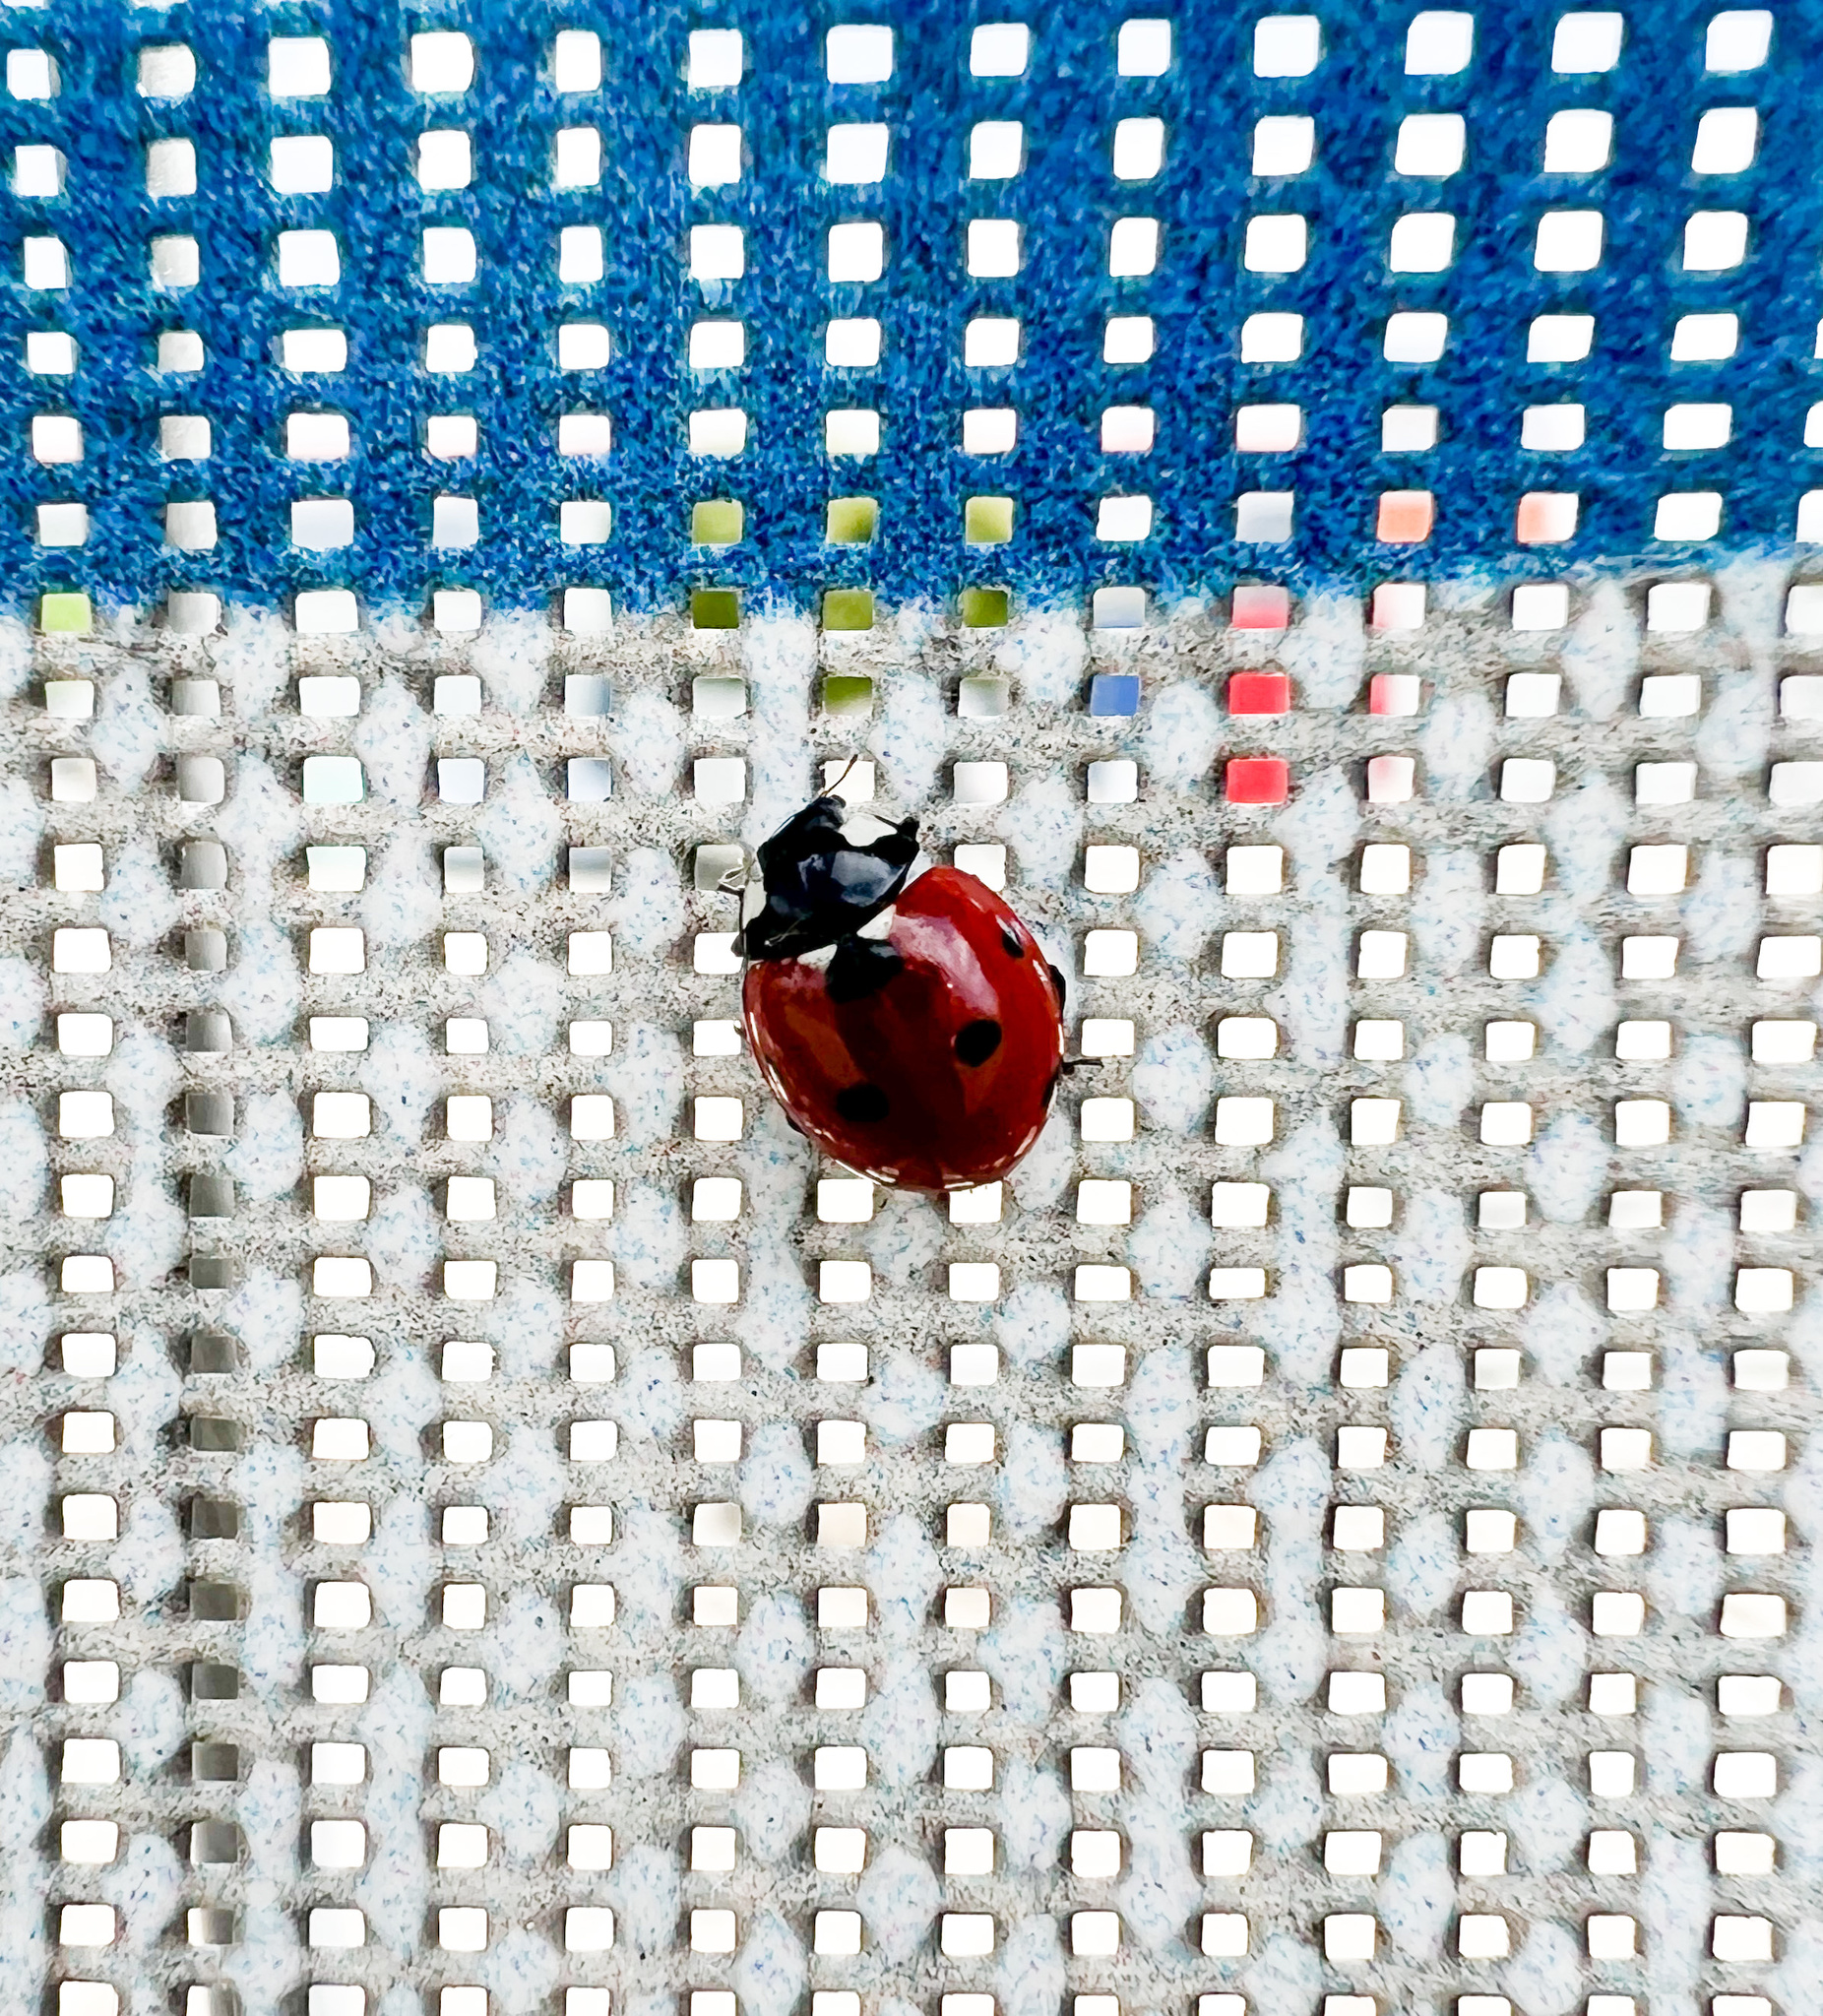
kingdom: Animalia
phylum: Arthropoda
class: Insecta
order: Coleoptera
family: Coccinellidae
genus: Coccinella
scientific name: Coccinella septempunctata
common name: Sevenspotted lady beetle
